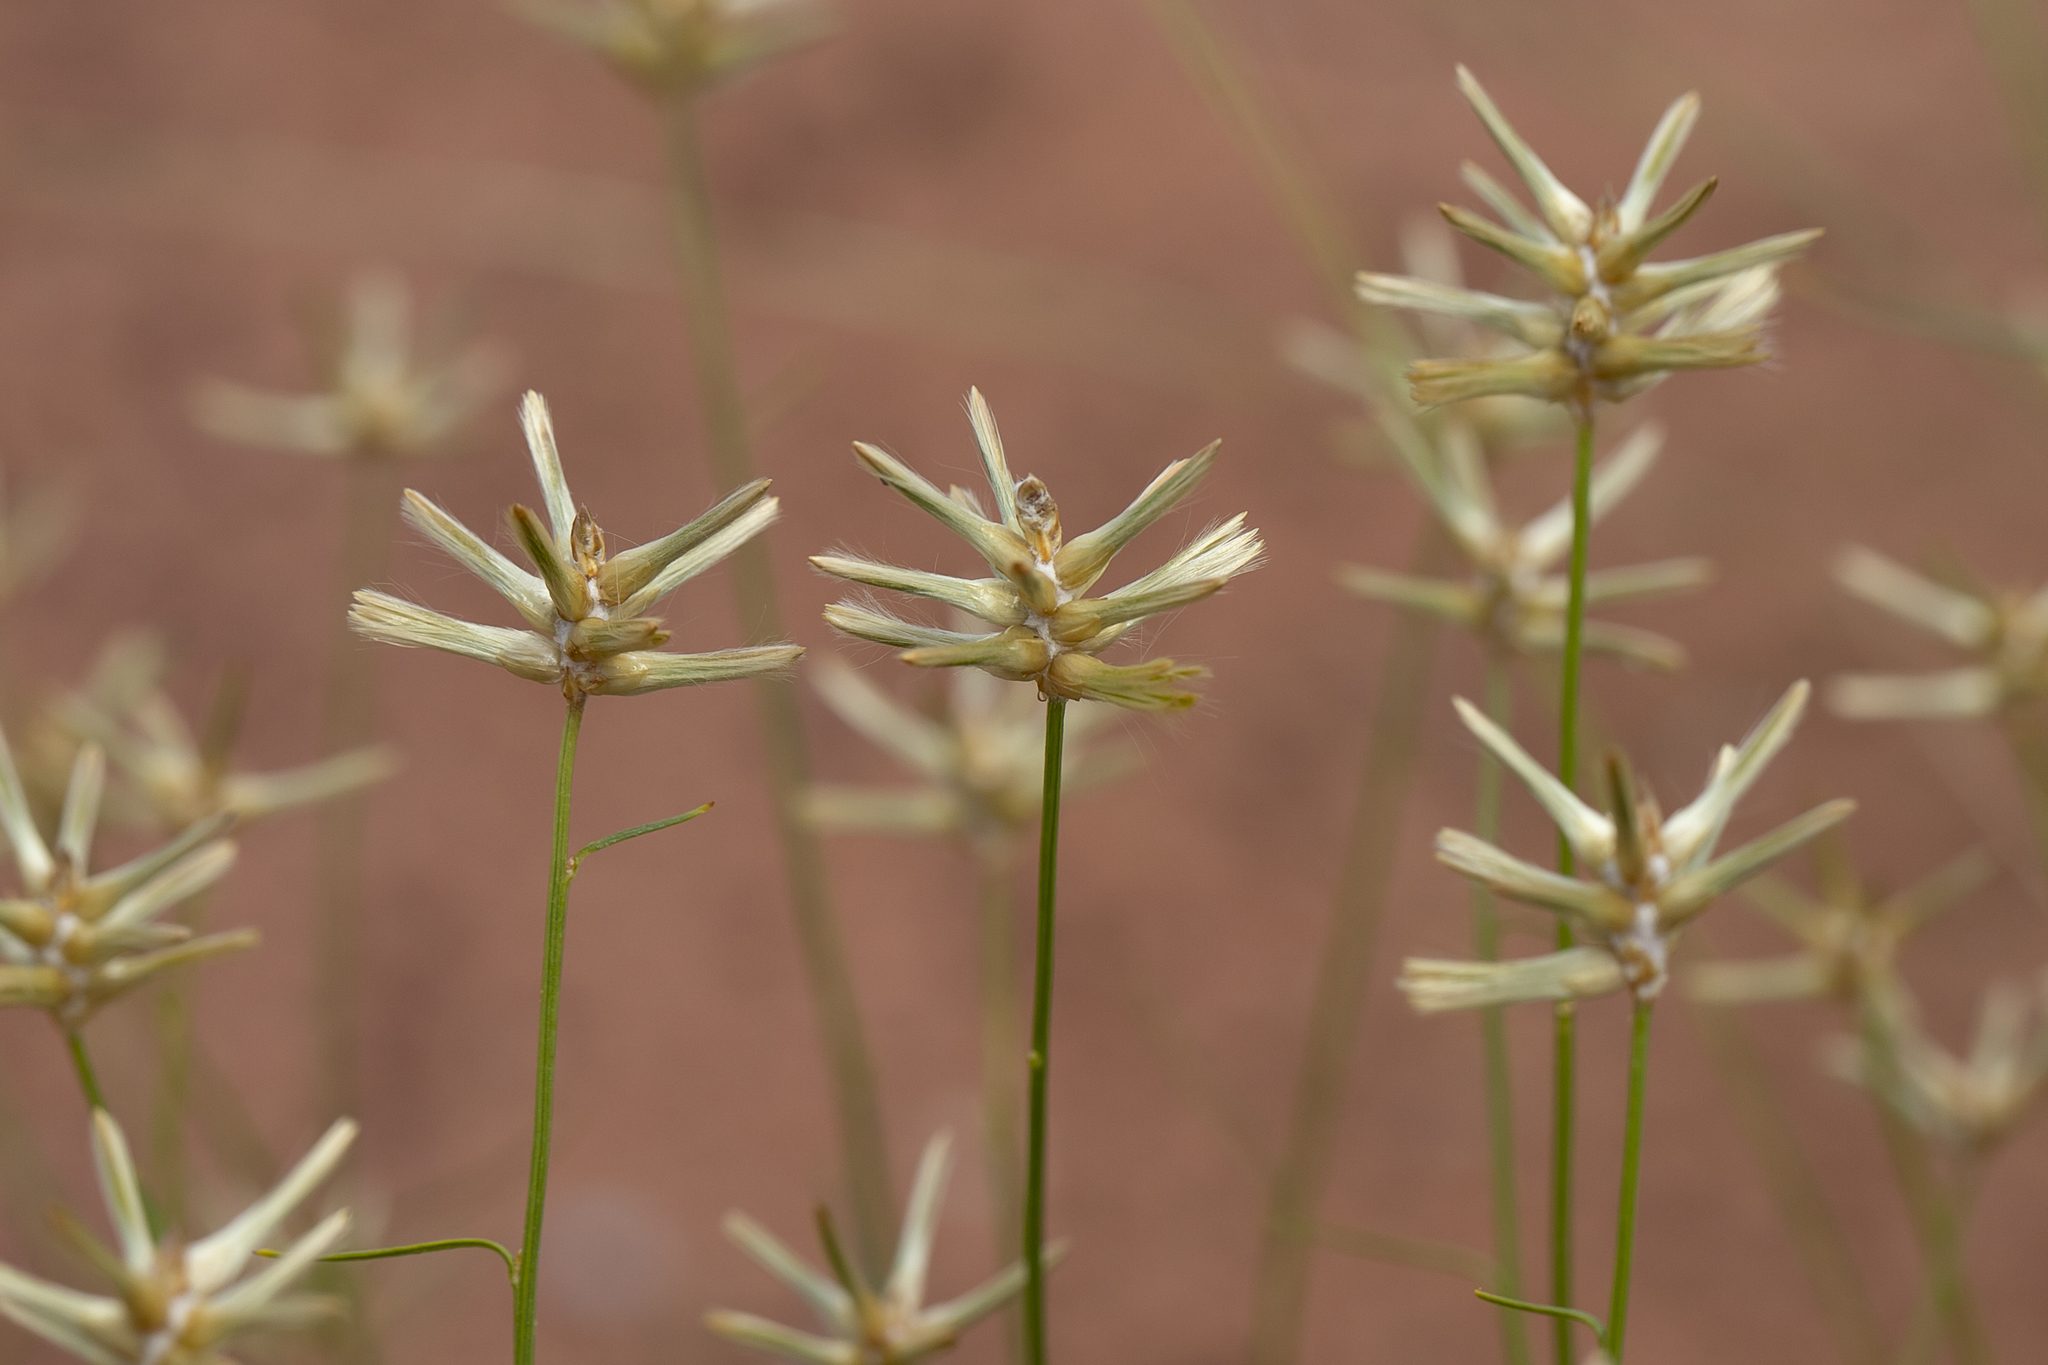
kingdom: Plantae
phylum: Tracheophyta
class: Magnoliopsida
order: Caryophyllales
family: Amaranthaceae
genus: Ptilotus
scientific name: Ptilotus fusiformis
